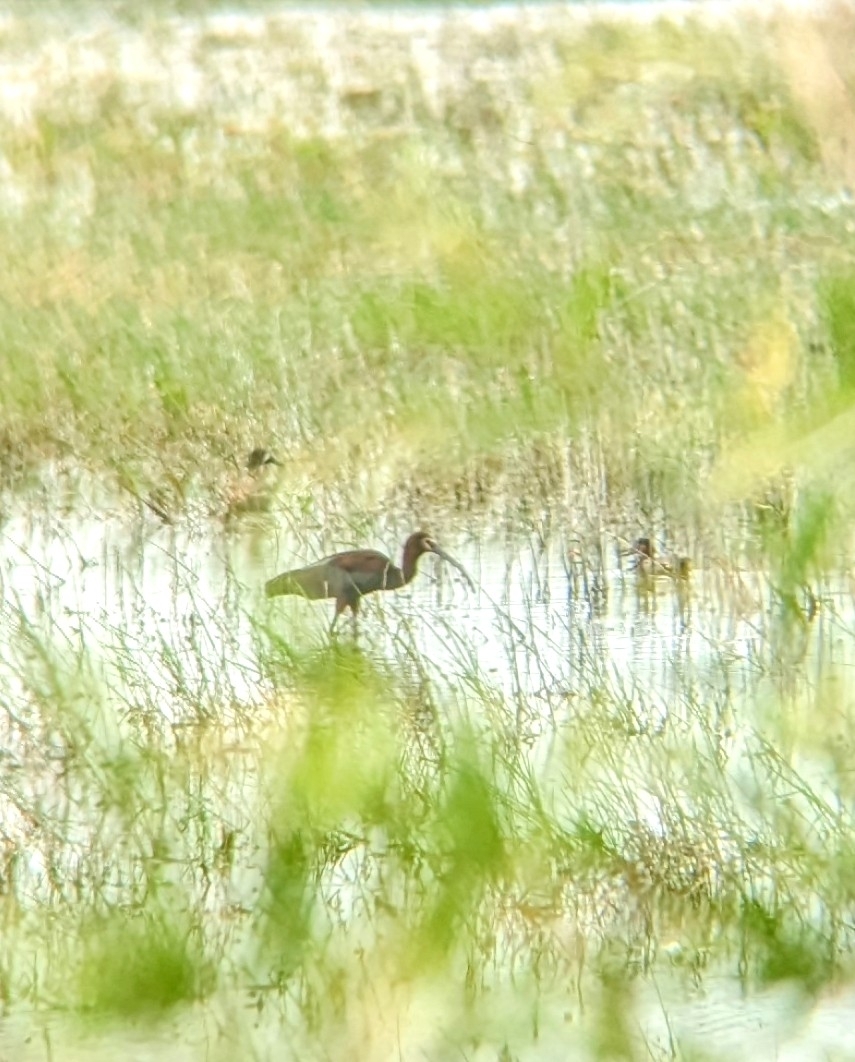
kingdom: Animalia
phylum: Chordata
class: Aves
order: Pelecaniformes
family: Threskiornithidae
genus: Plegadis
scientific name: Plegadis chihi
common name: White-faced ibis
